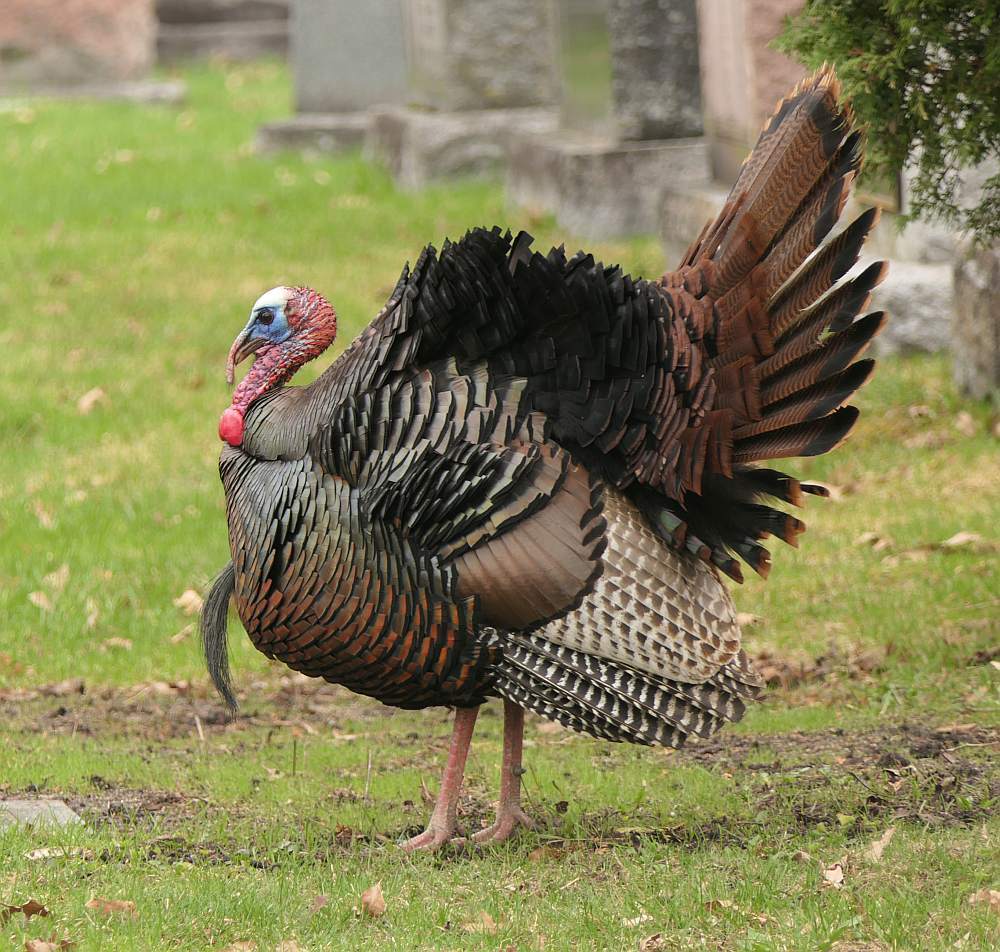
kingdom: Animalia
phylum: Chordata
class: Aves
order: Galliformes
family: Phasianidae
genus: Meleagris
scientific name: Meleagris gallopavo
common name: Wild turkey
